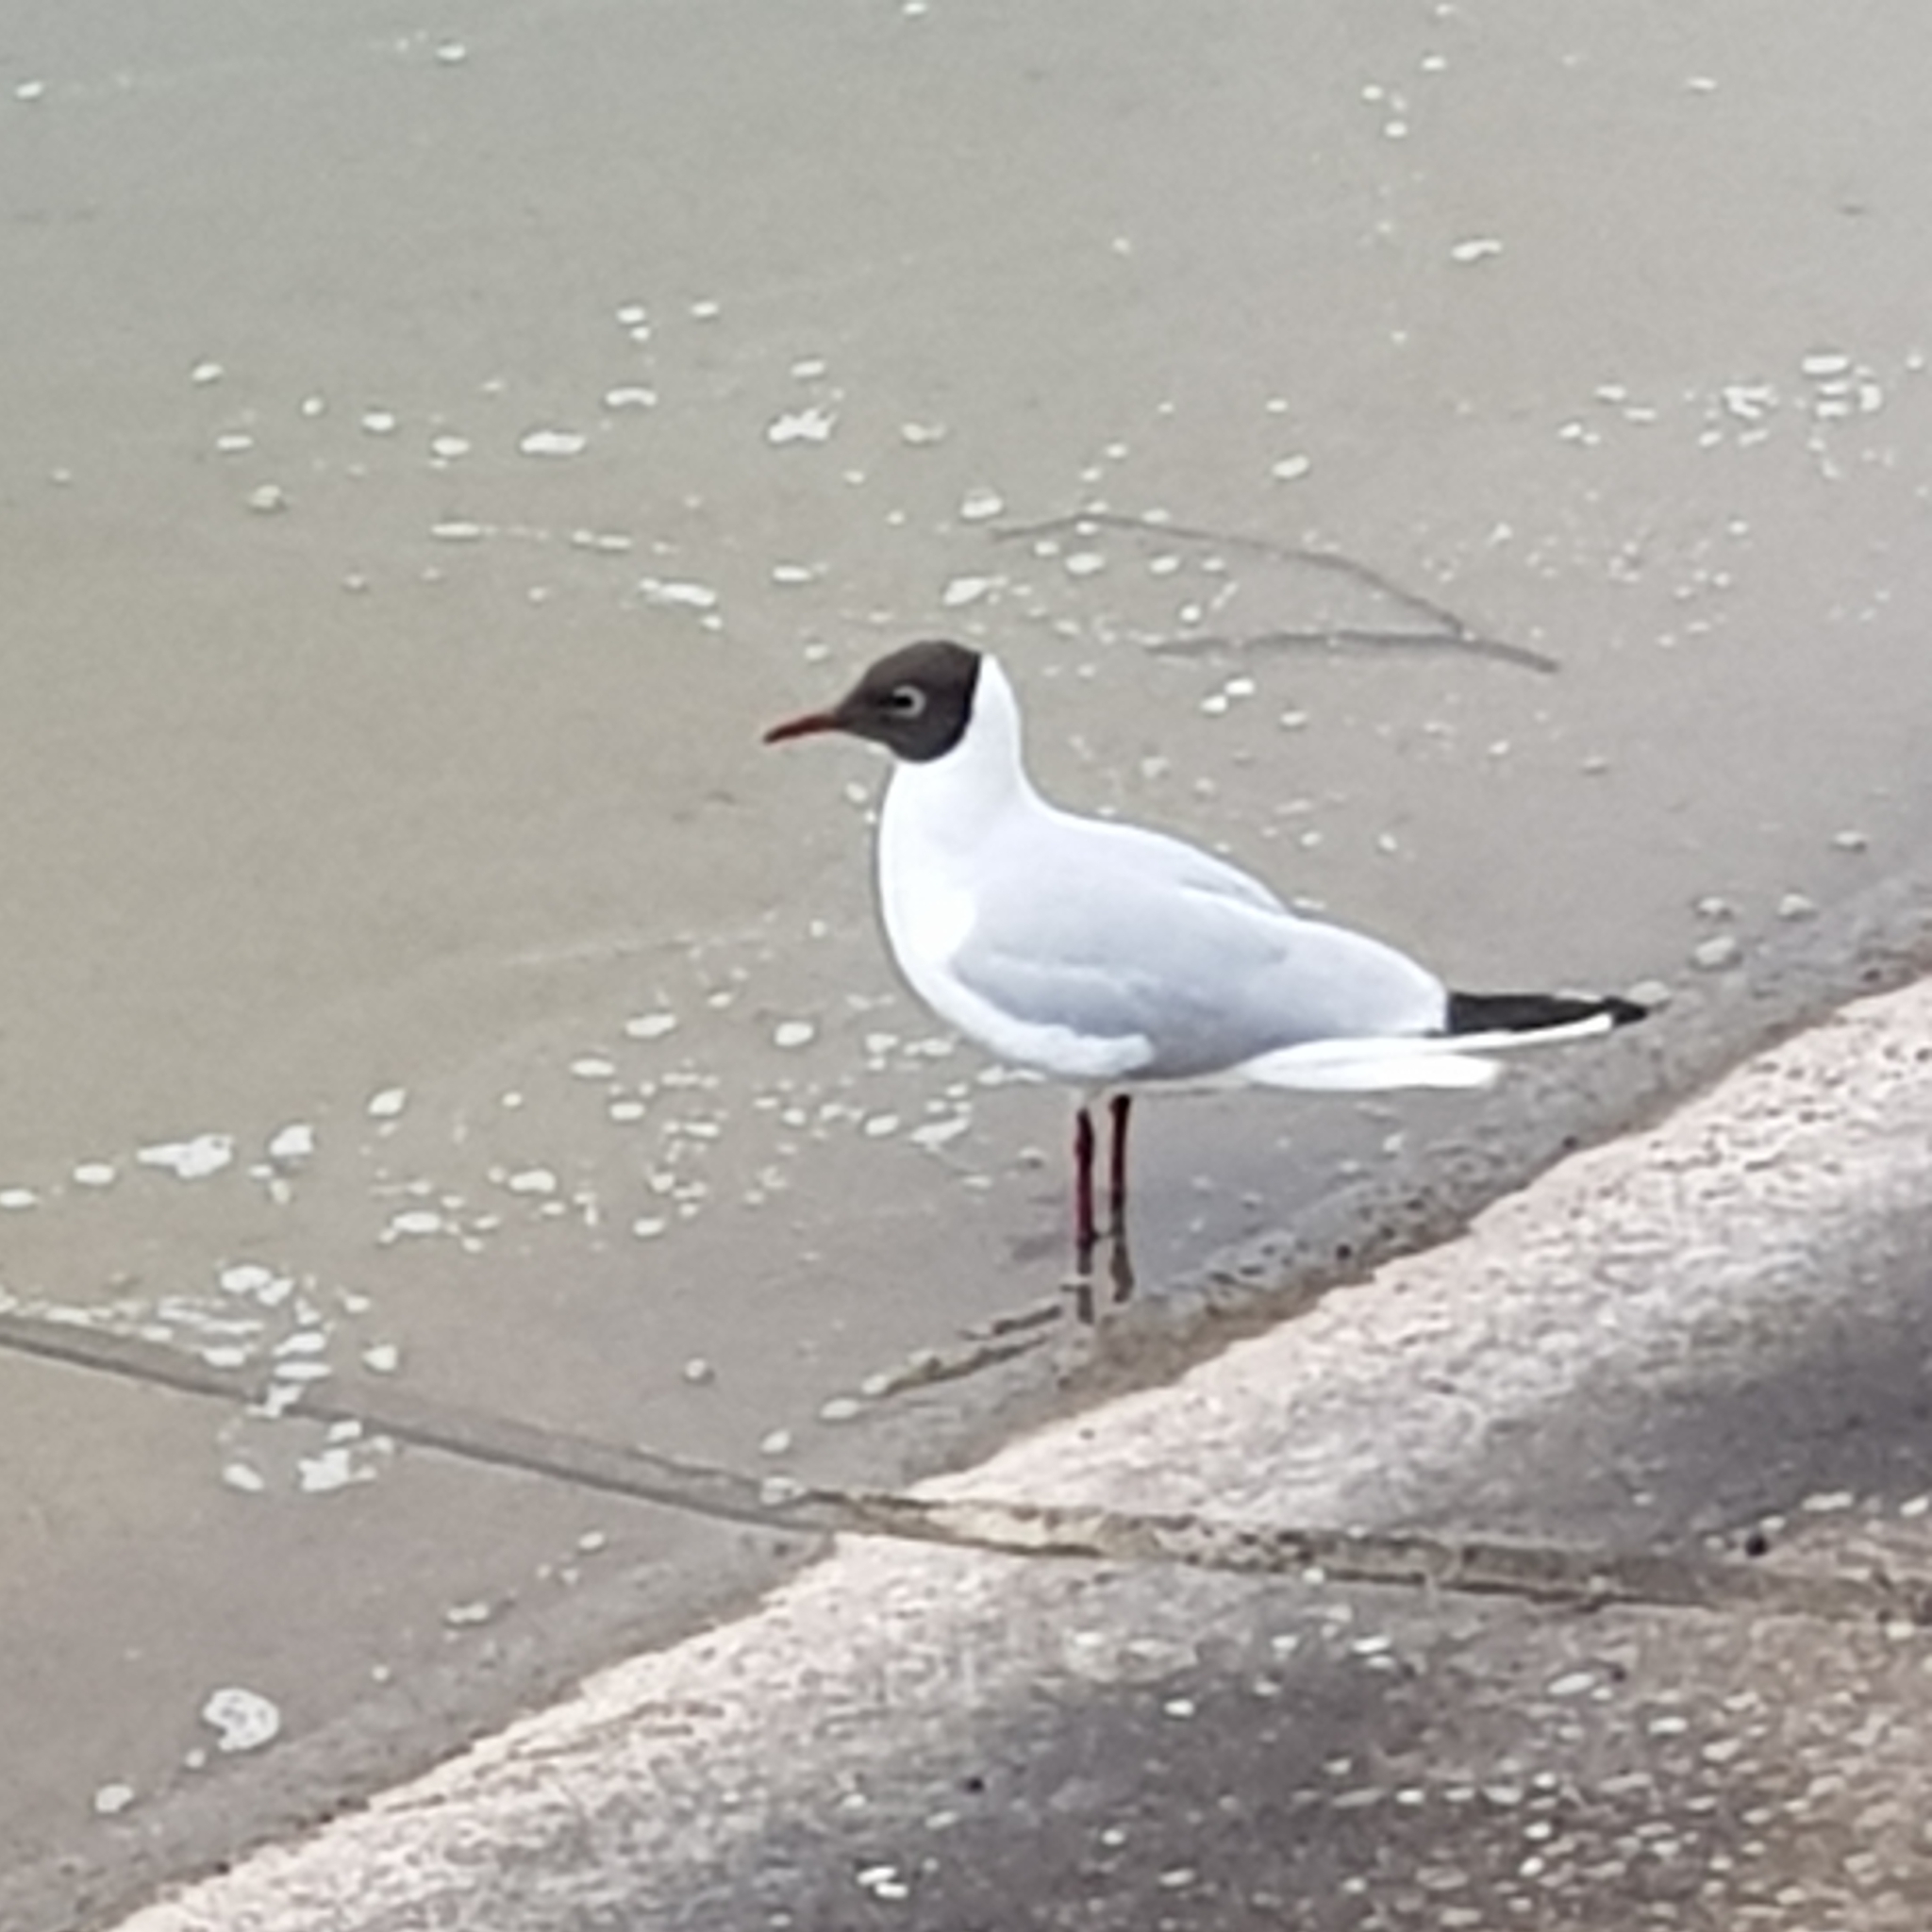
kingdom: Animalia
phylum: Chordata
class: Aves
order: Charadriiformes
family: Laridae
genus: Chroicocephalus
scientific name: Chroicocephalus ridibundus
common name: Black-headed gull
